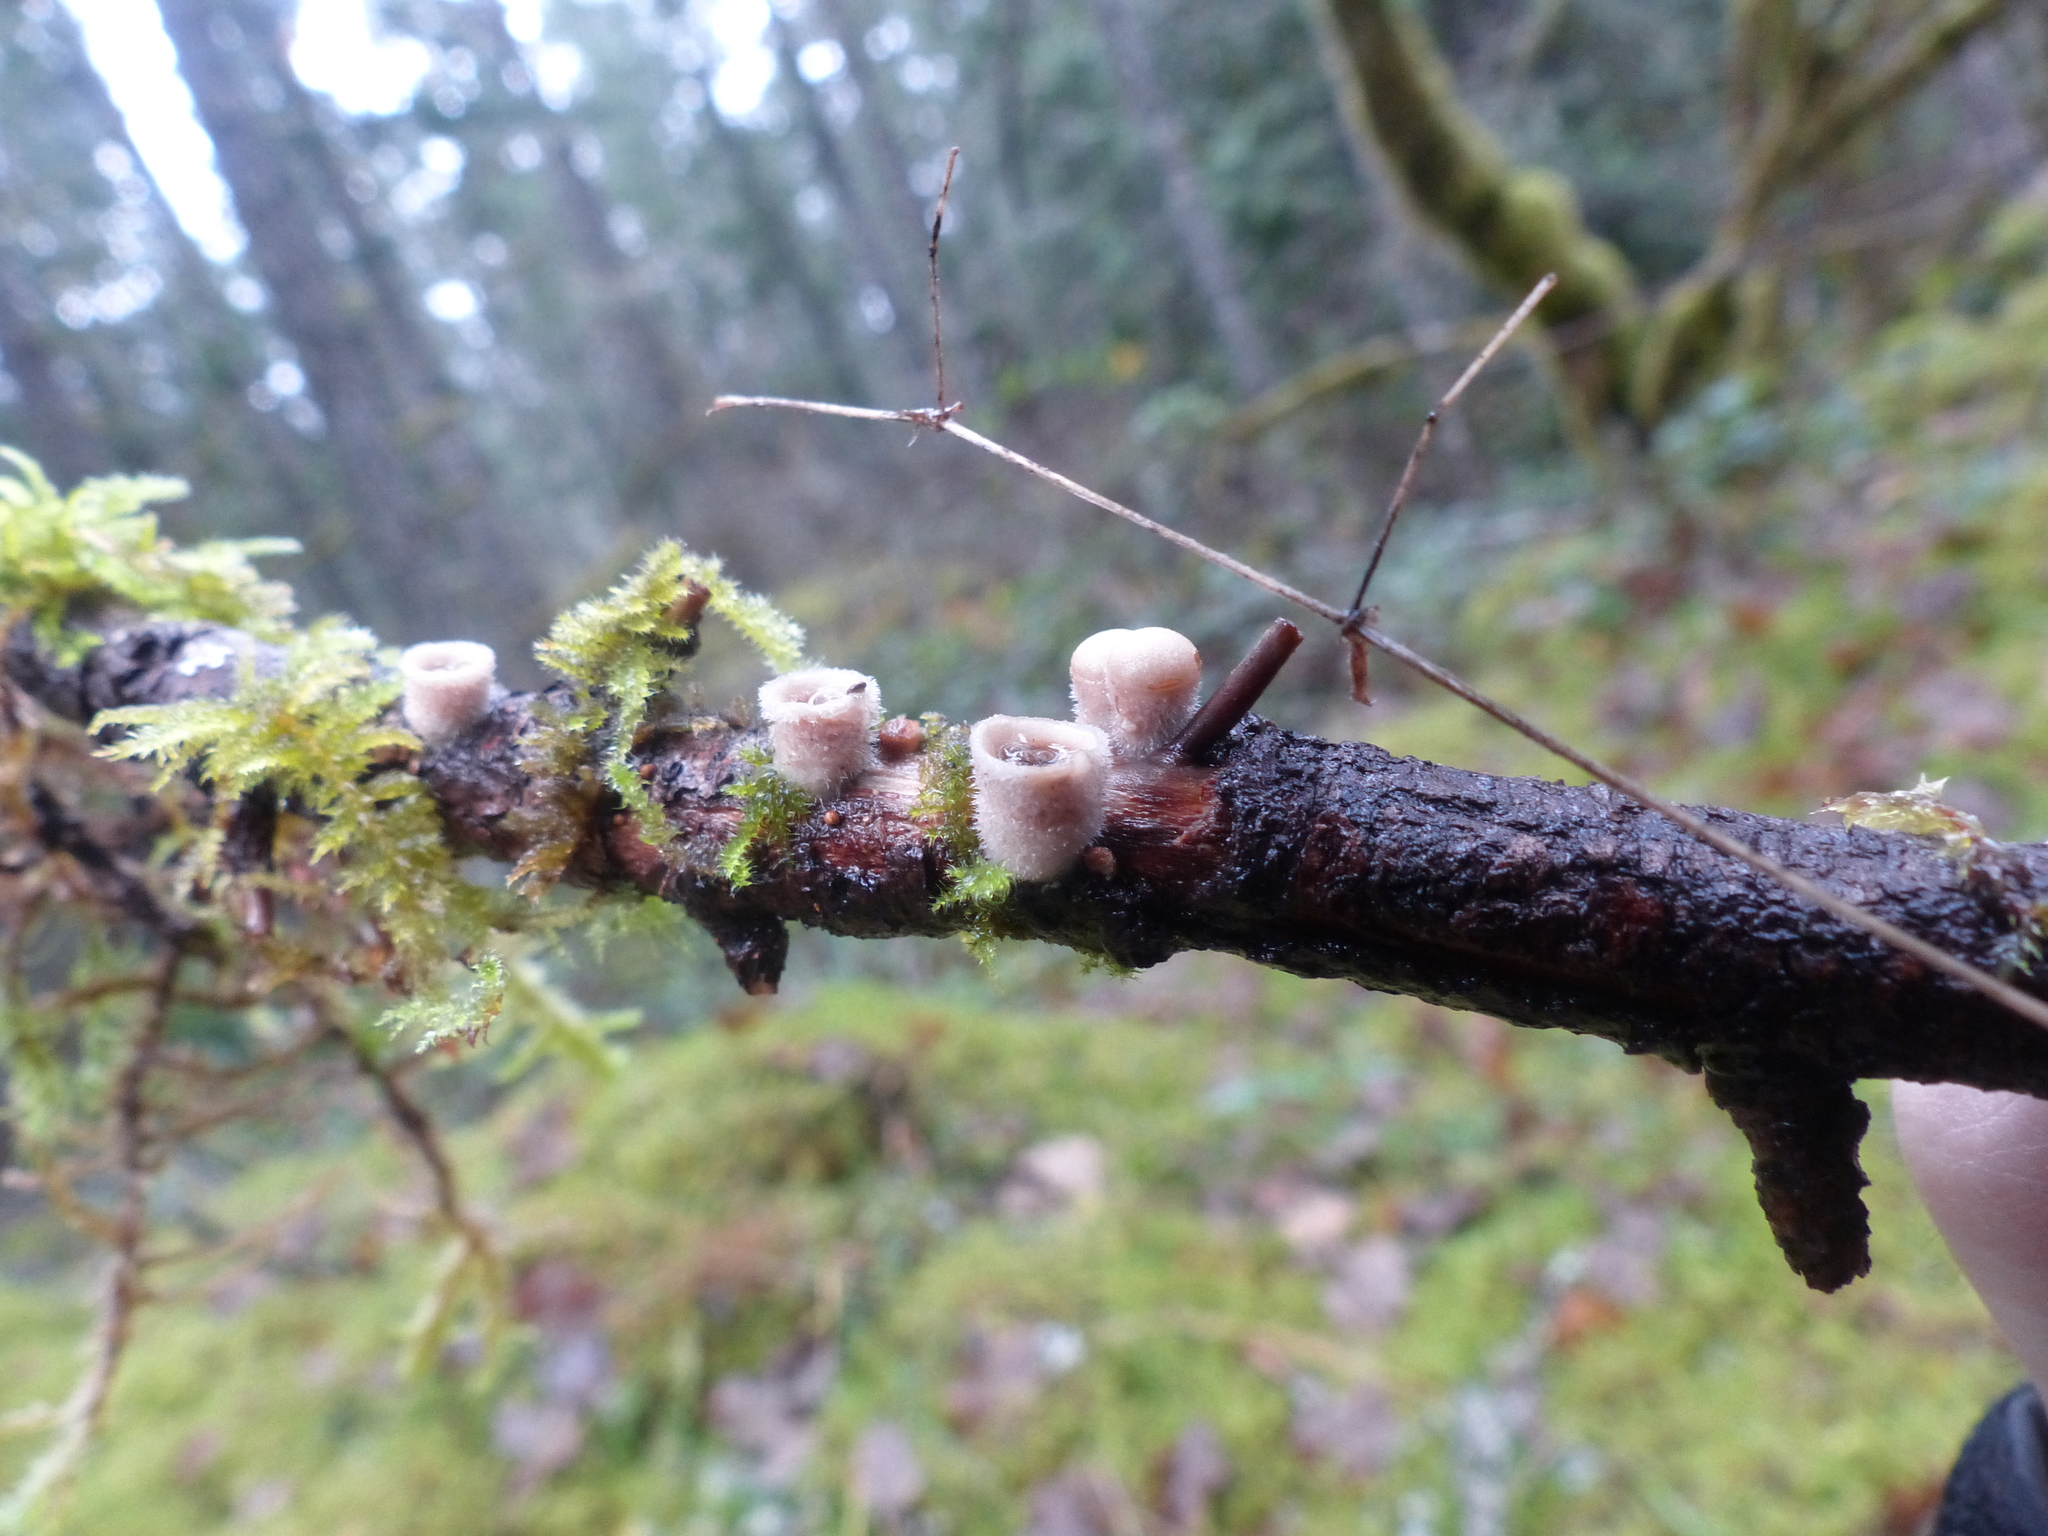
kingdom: Fungi
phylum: Basidiomycota
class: Agaricomycetes
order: Agaricales
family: Agaricaceae
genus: Nidula
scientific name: Nidula niveotomentosa
